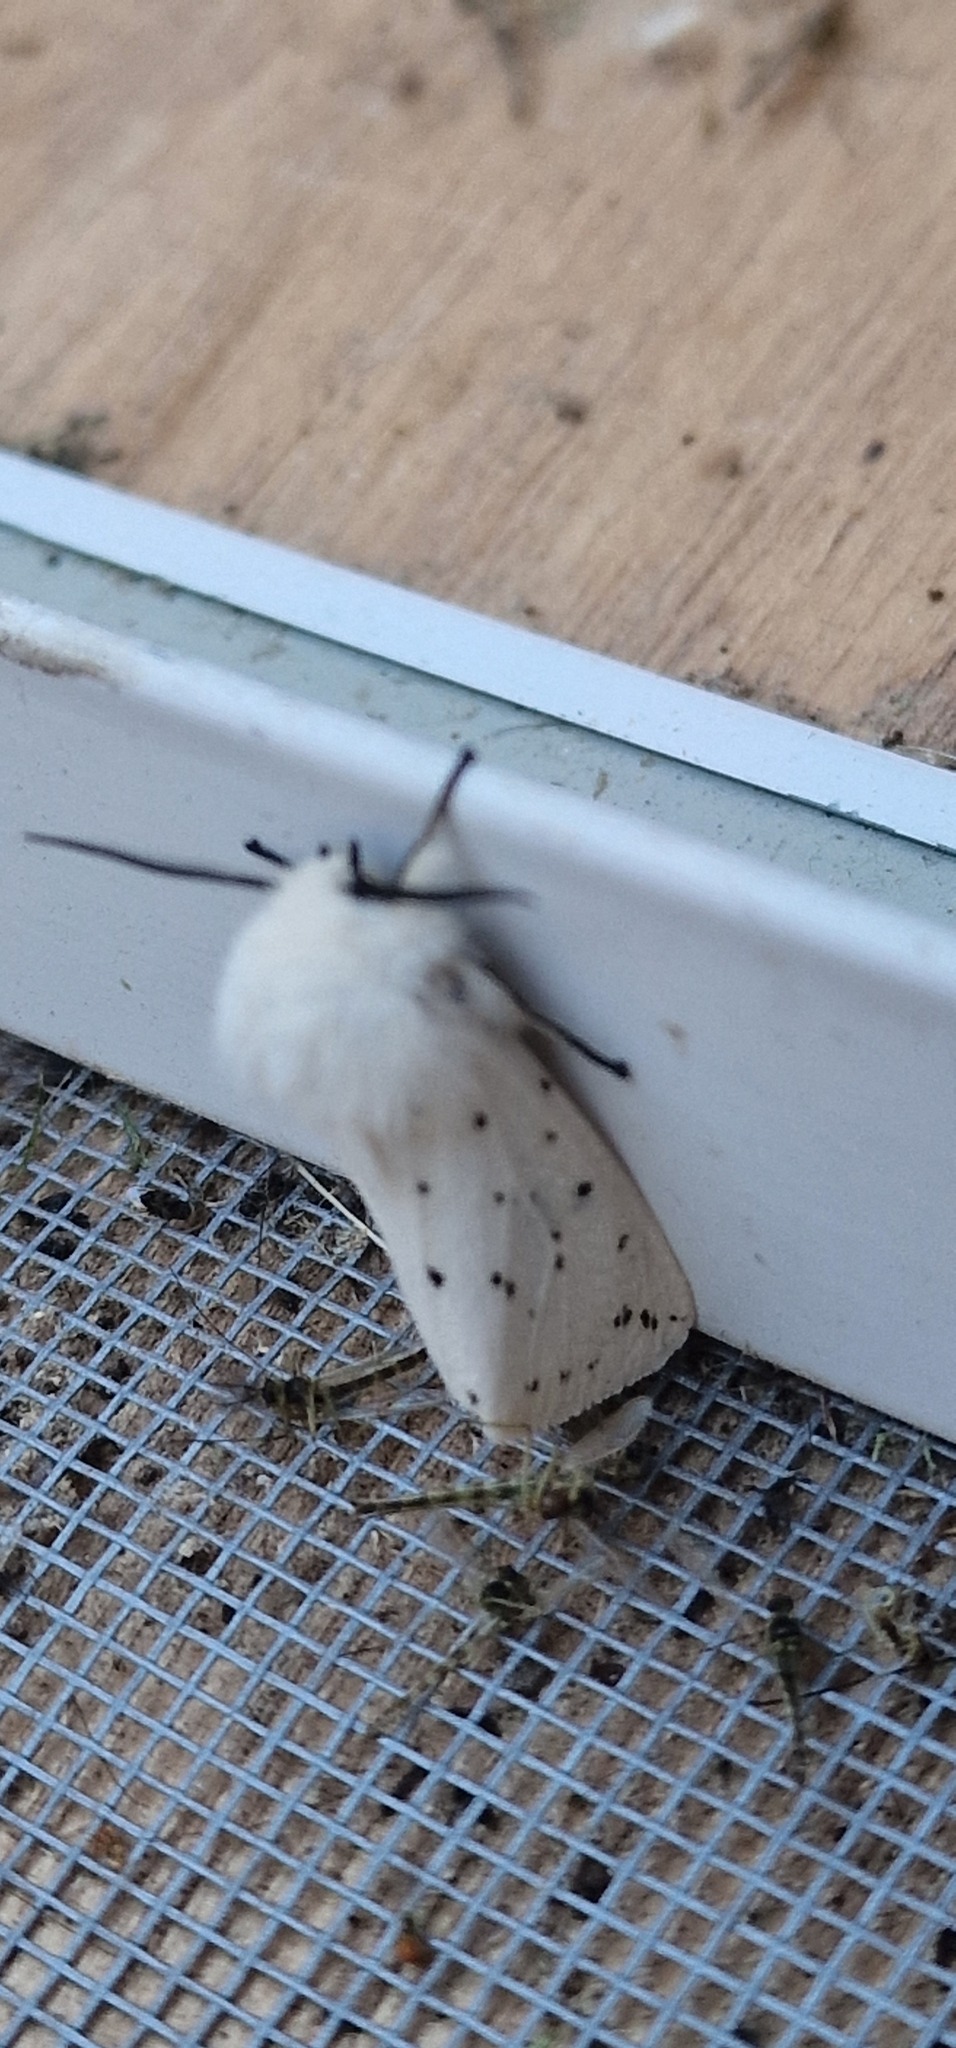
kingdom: Animalia
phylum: Arthropoda
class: Insecta
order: Lepidoptera
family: Erebidae
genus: Spilosoma
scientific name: Spilosoma lubricipeda
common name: White ermine
